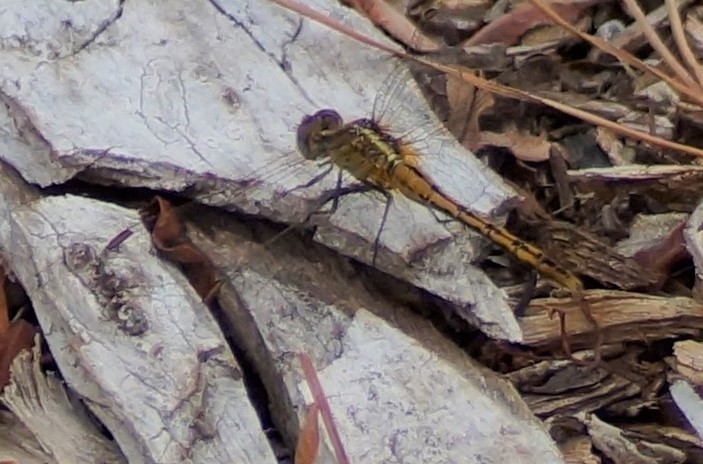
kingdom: Animalia
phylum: Arthropoda
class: Insecta
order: Odonata
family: Libellulidae
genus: Diplacodes
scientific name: Diplacodes bipunctata
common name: Red percher dragonfly
